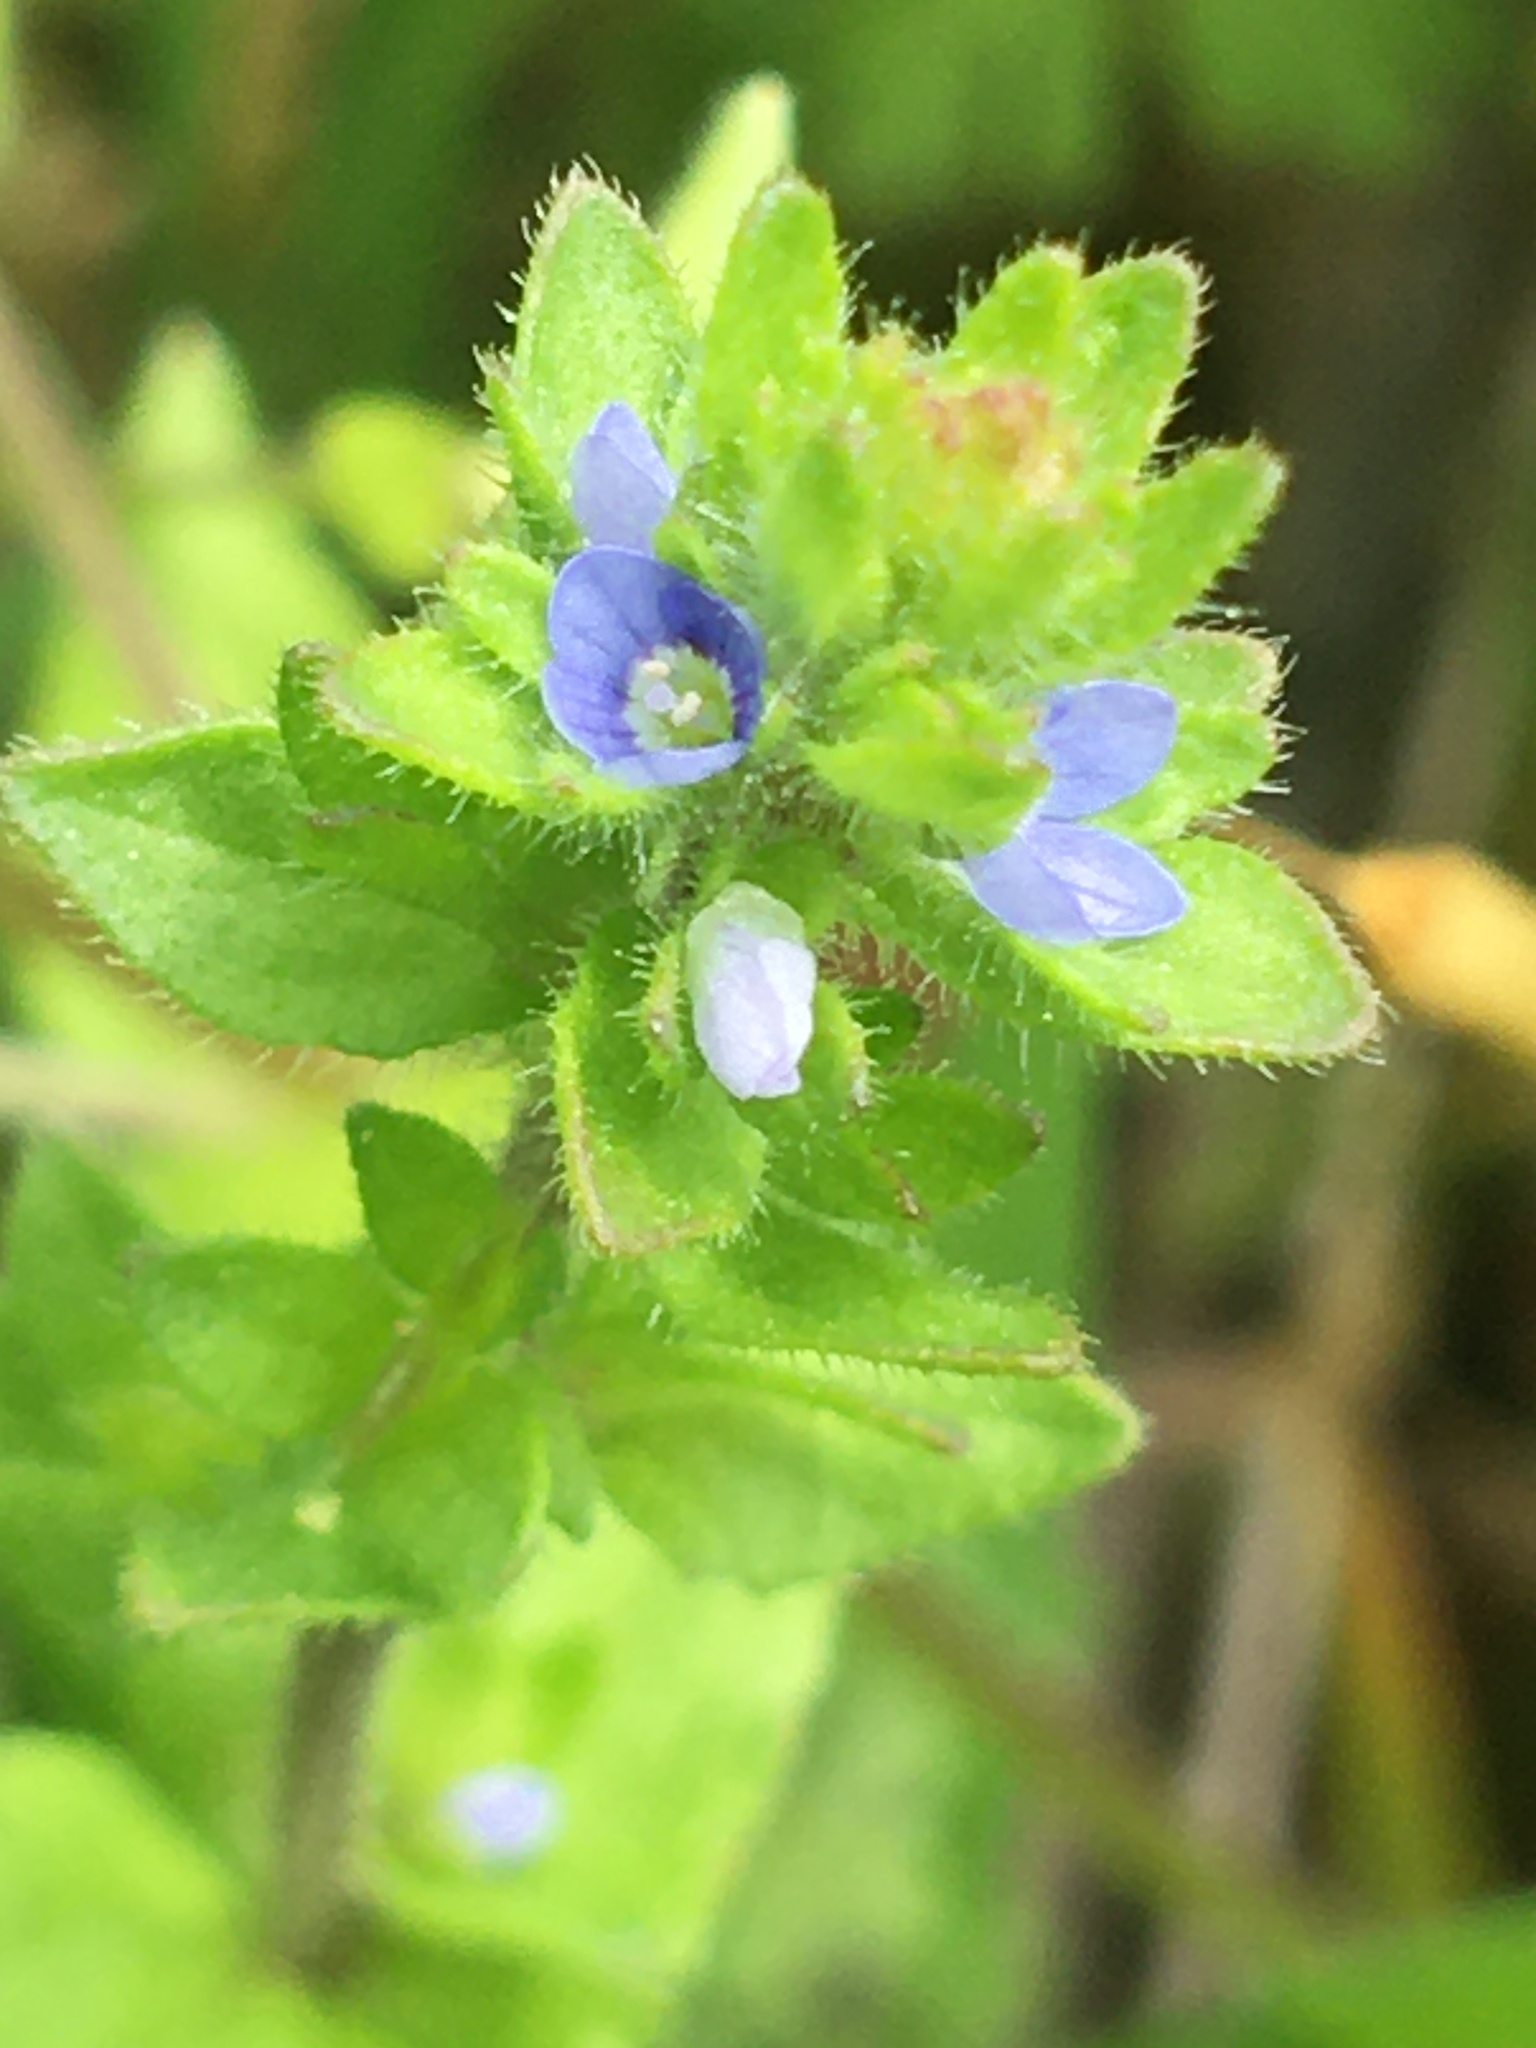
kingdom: Plantae
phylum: Tracheophyta
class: Magnoliopsida
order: Lamiales
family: Plantaginaceae
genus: Veronica
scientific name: Veronica arvensis
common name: Corn speedwell
